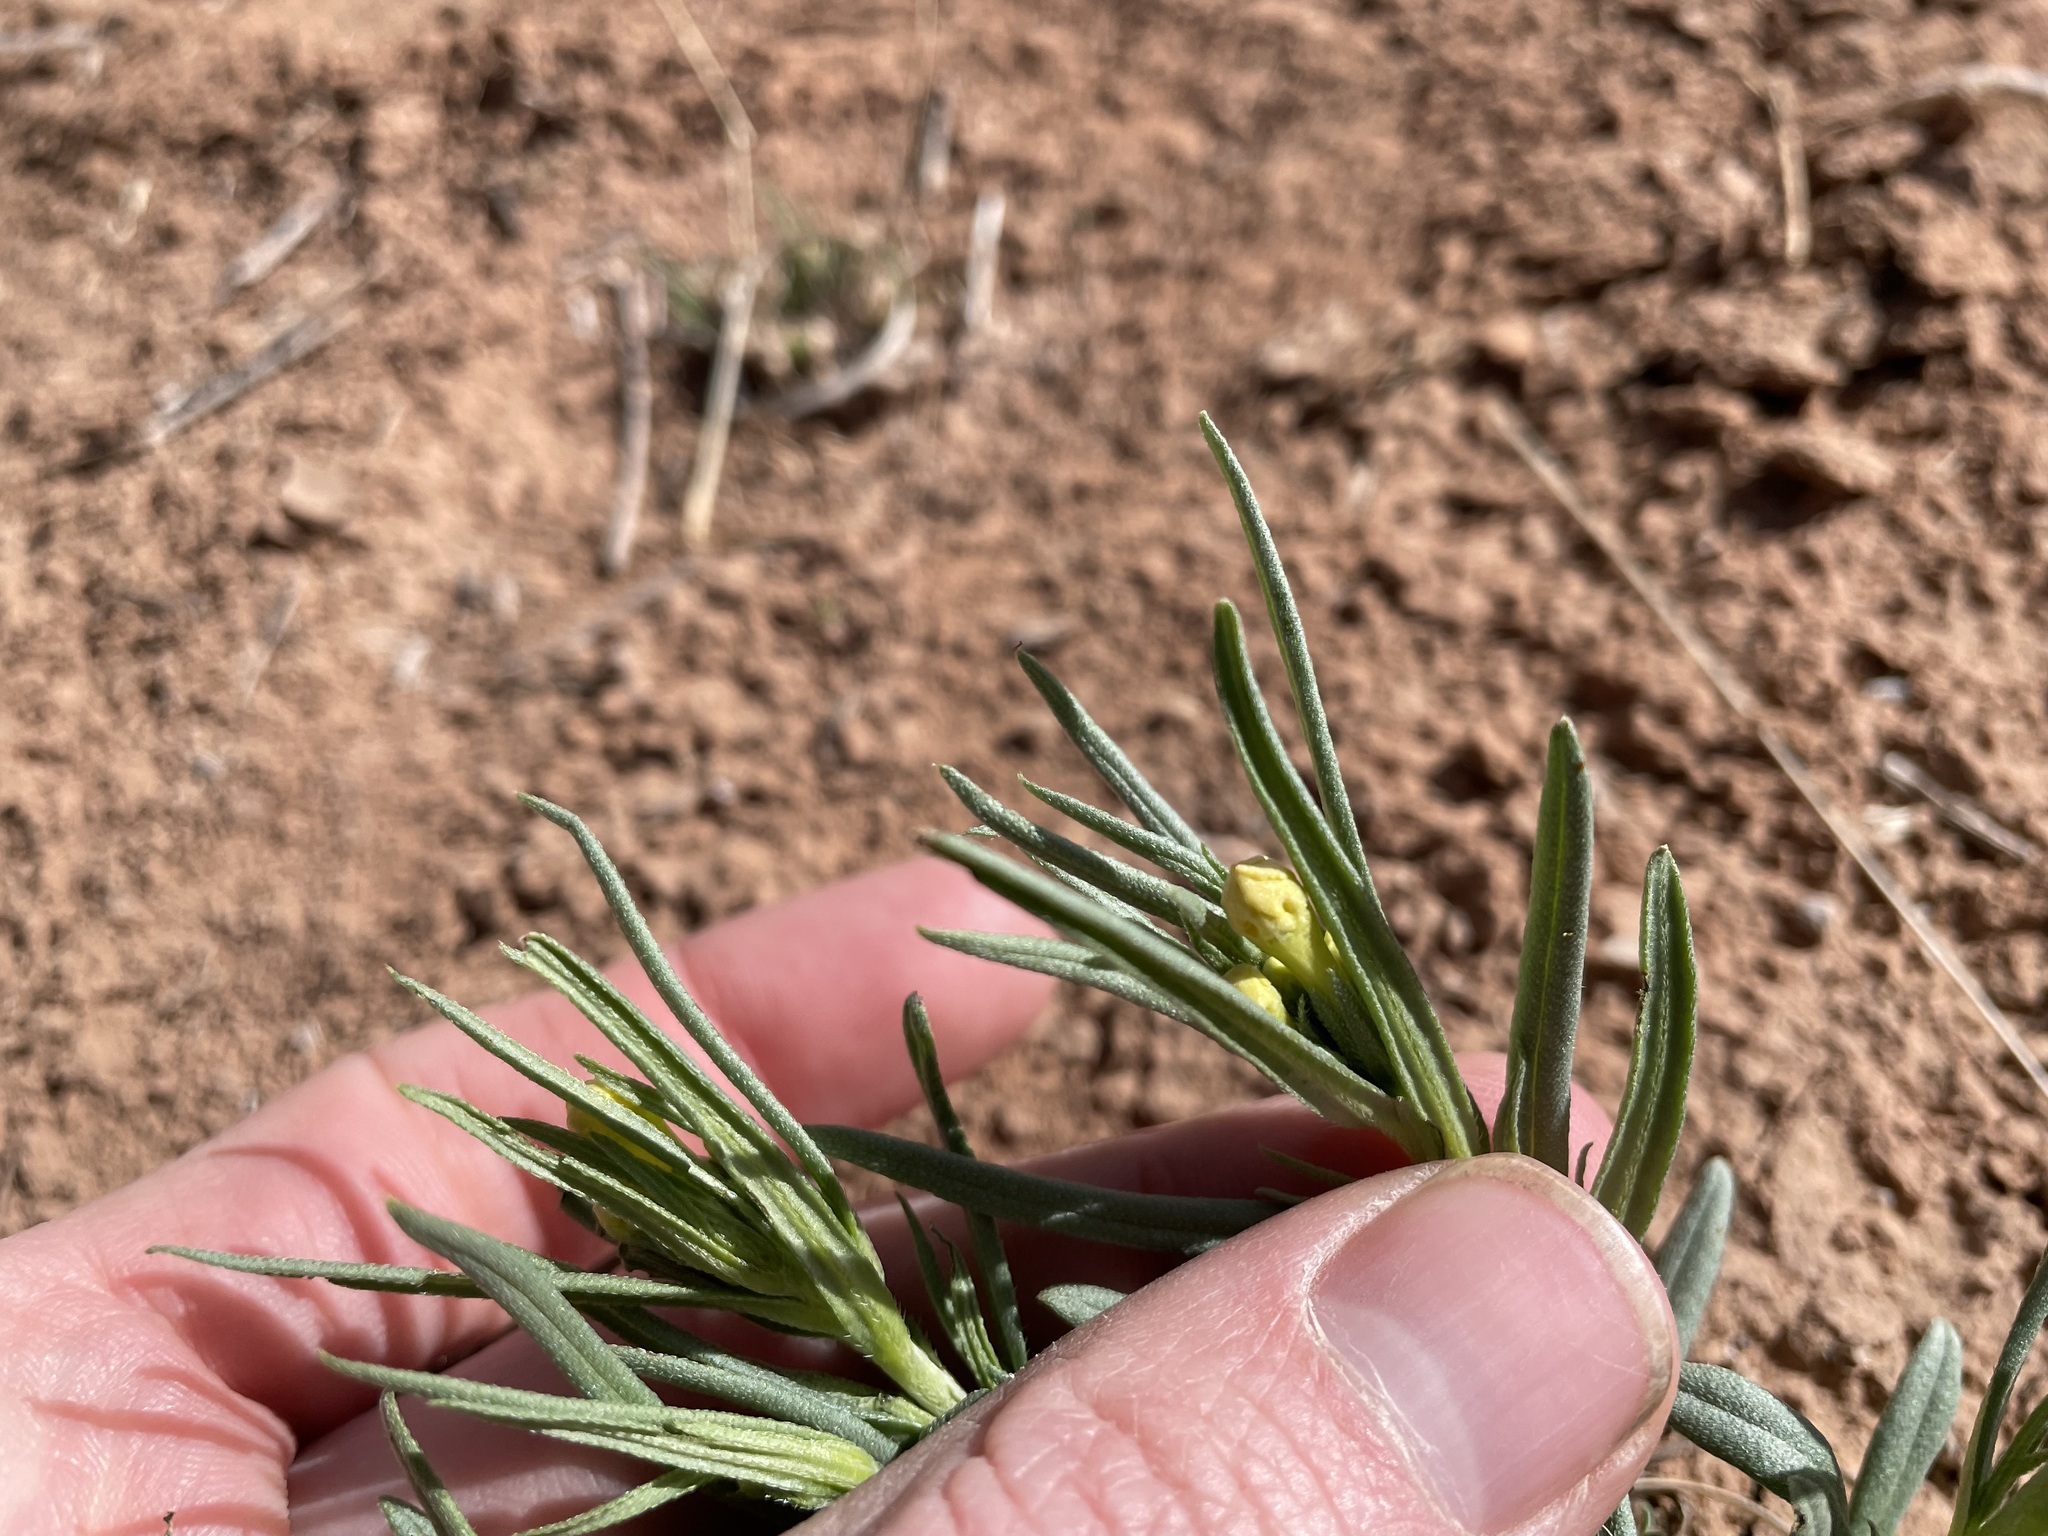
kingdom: Plantae
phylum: Tracheophyta
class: Magnoliopsida
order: Boraginales
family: Boraginaceae
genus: Lithospermum
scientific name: Lithospermum incisum
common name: Fringed gromwell
